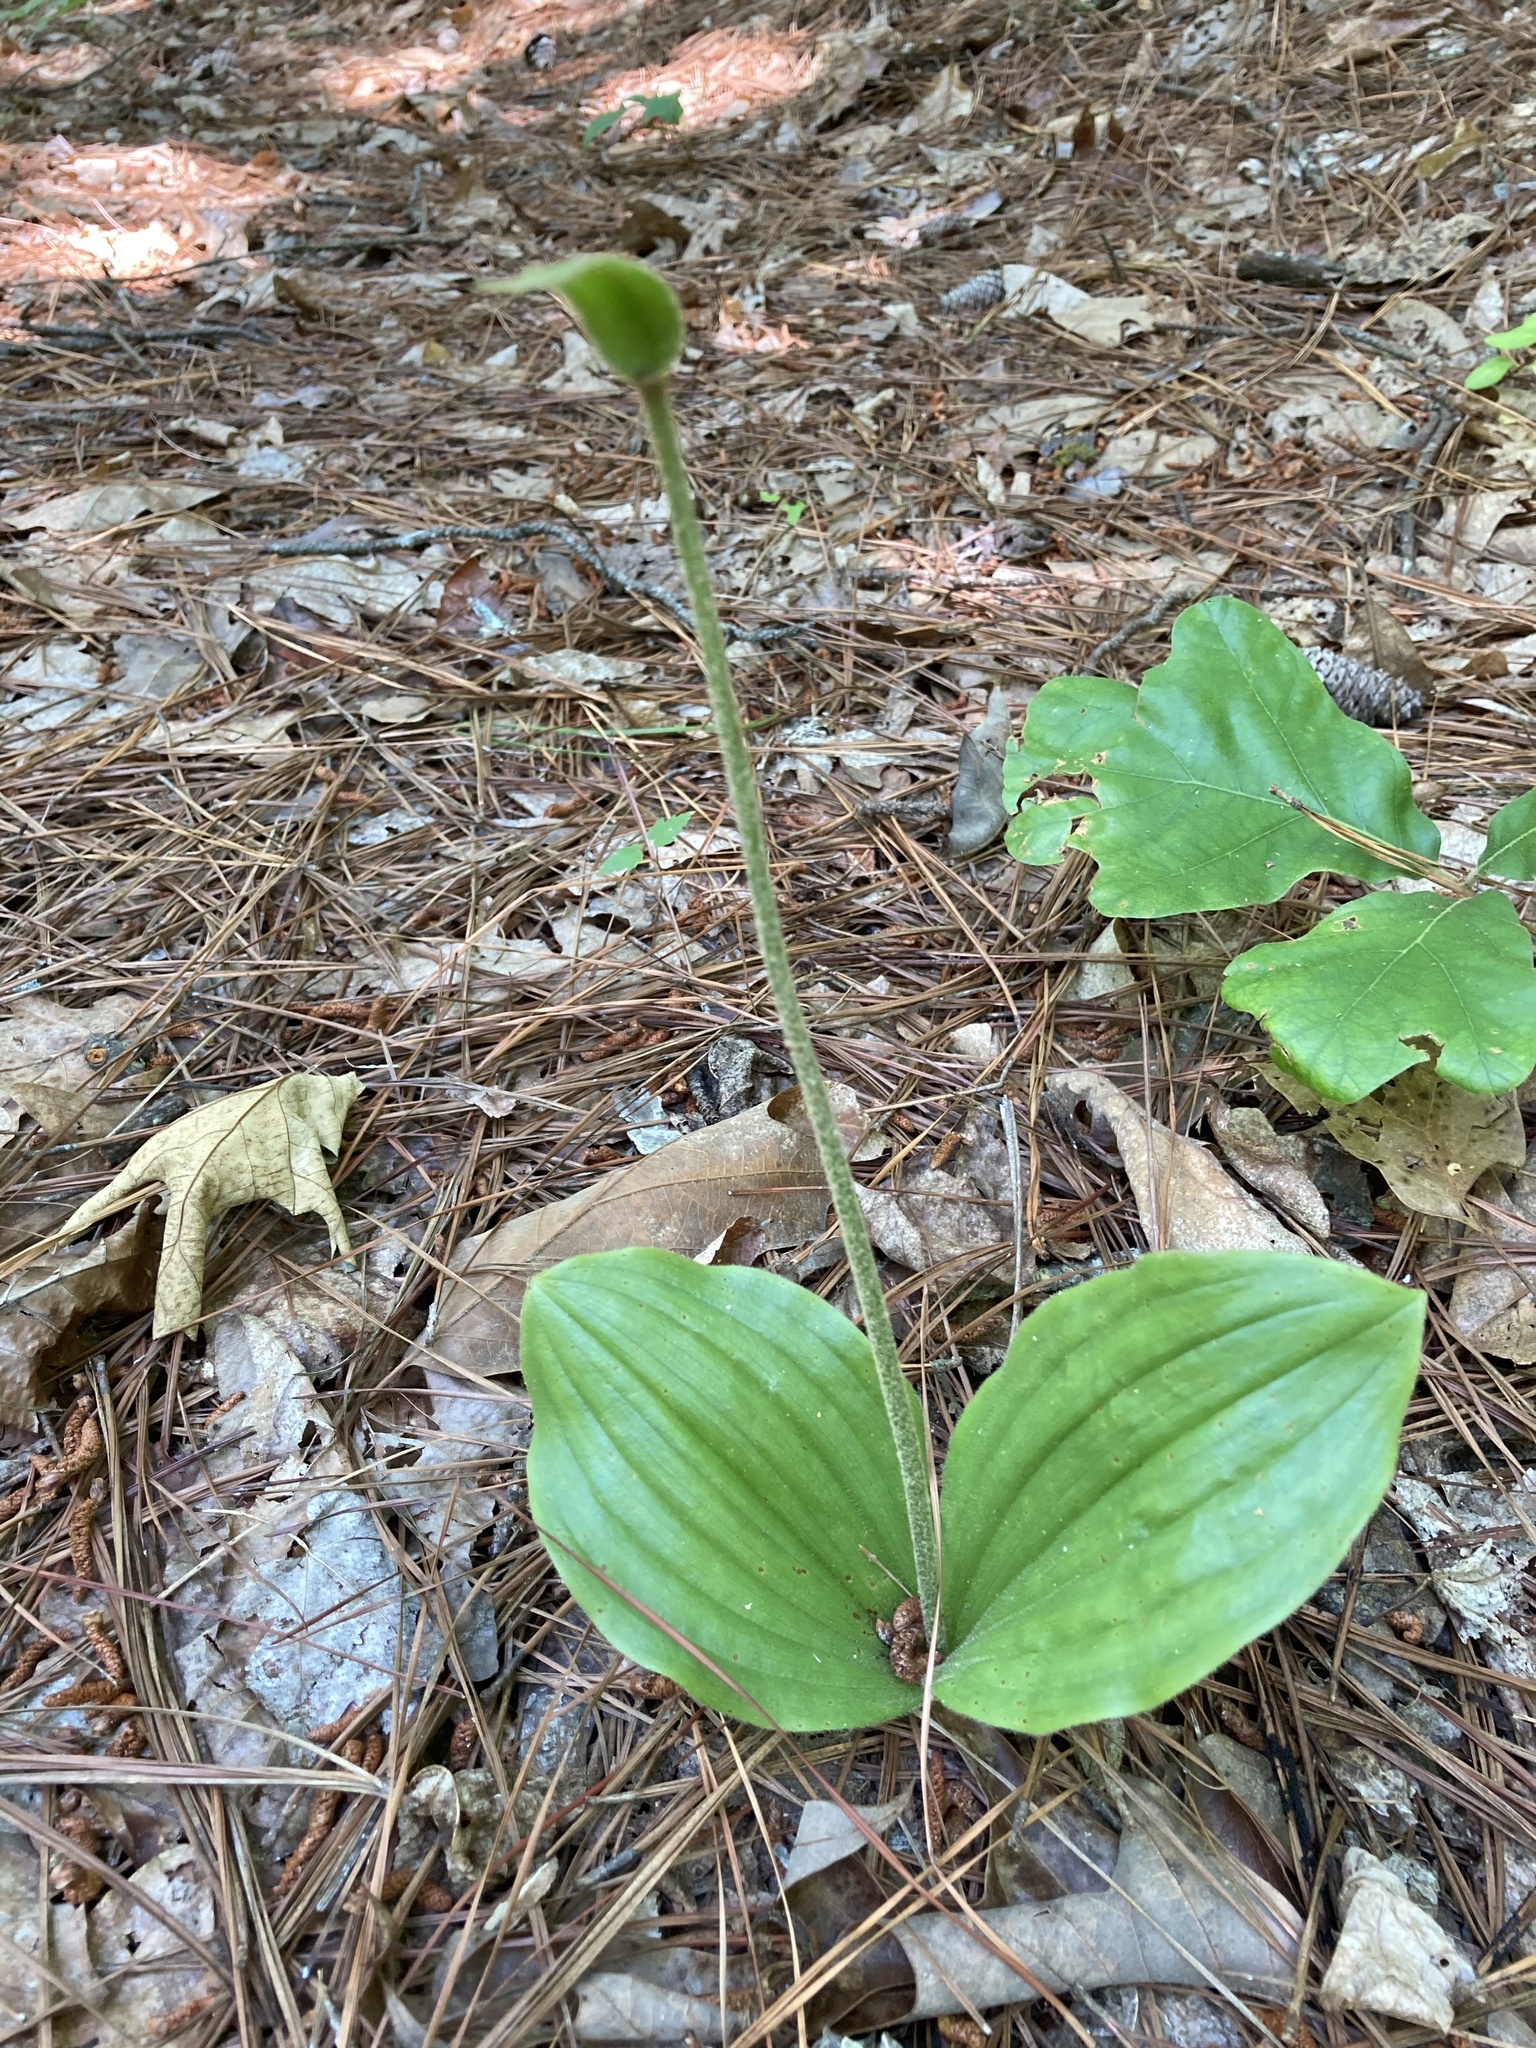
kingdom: Plantae
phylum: Tracheophyta
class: Liliopsida
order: Asparagales
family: Orchidaceae
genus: Cypripedium
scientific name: Cypripedium acaule
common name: Pink lady's-slipper
